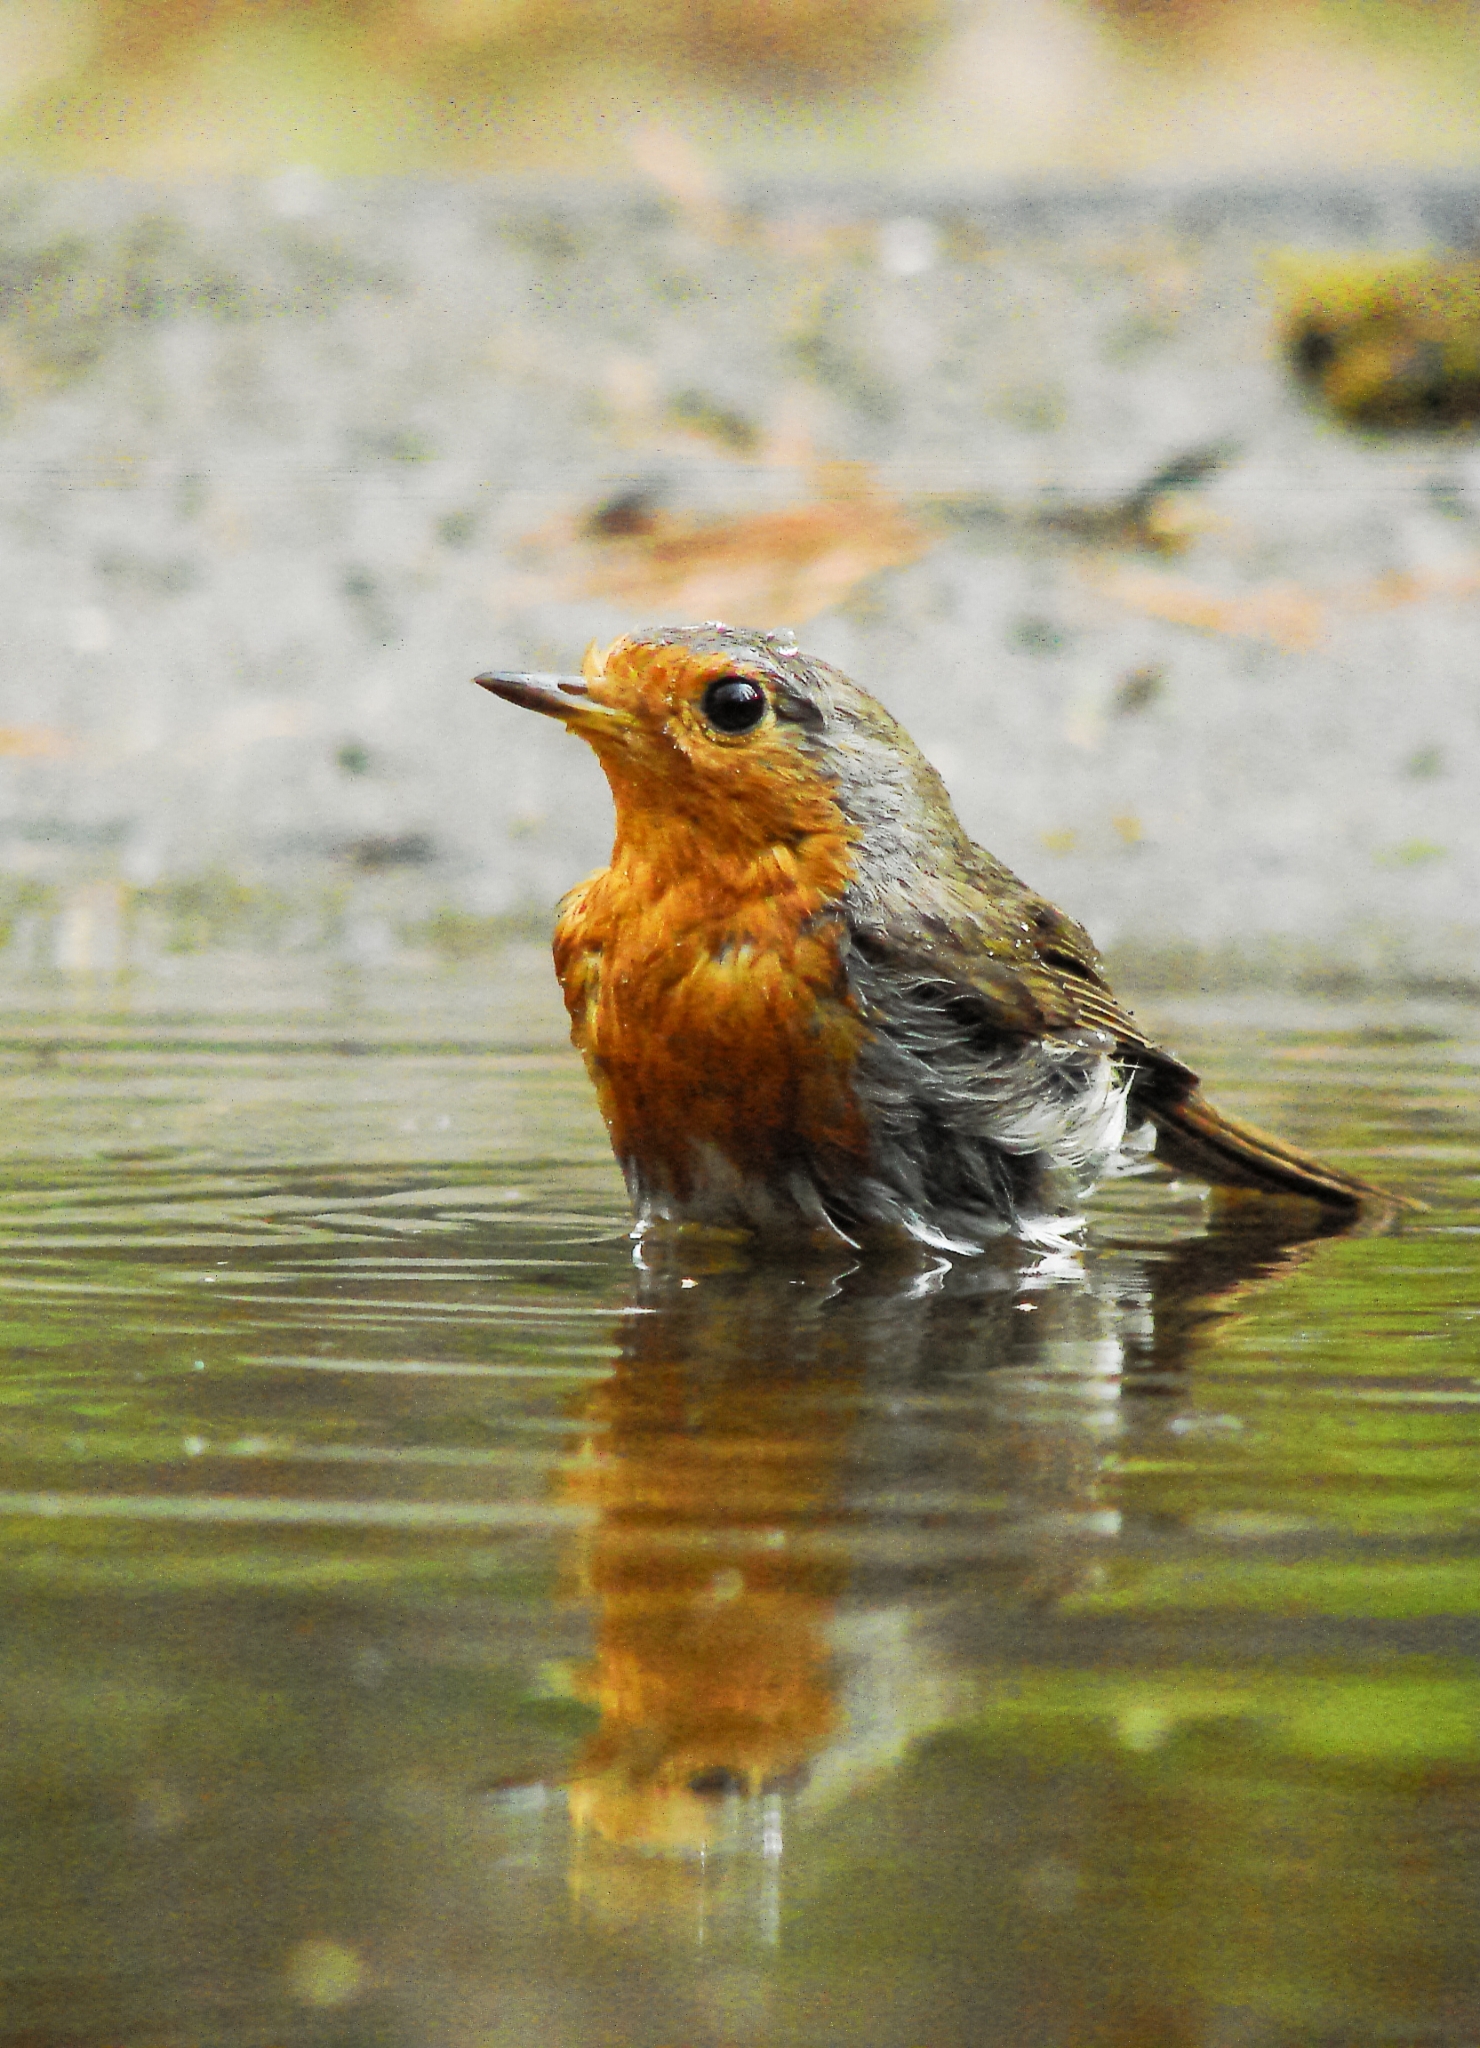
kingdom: Animalia
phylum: Chordata
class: Aves
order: Passeriformes
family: Muscicapidae
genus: Erithacus
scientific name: Erithacus rubecula
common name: European robin
